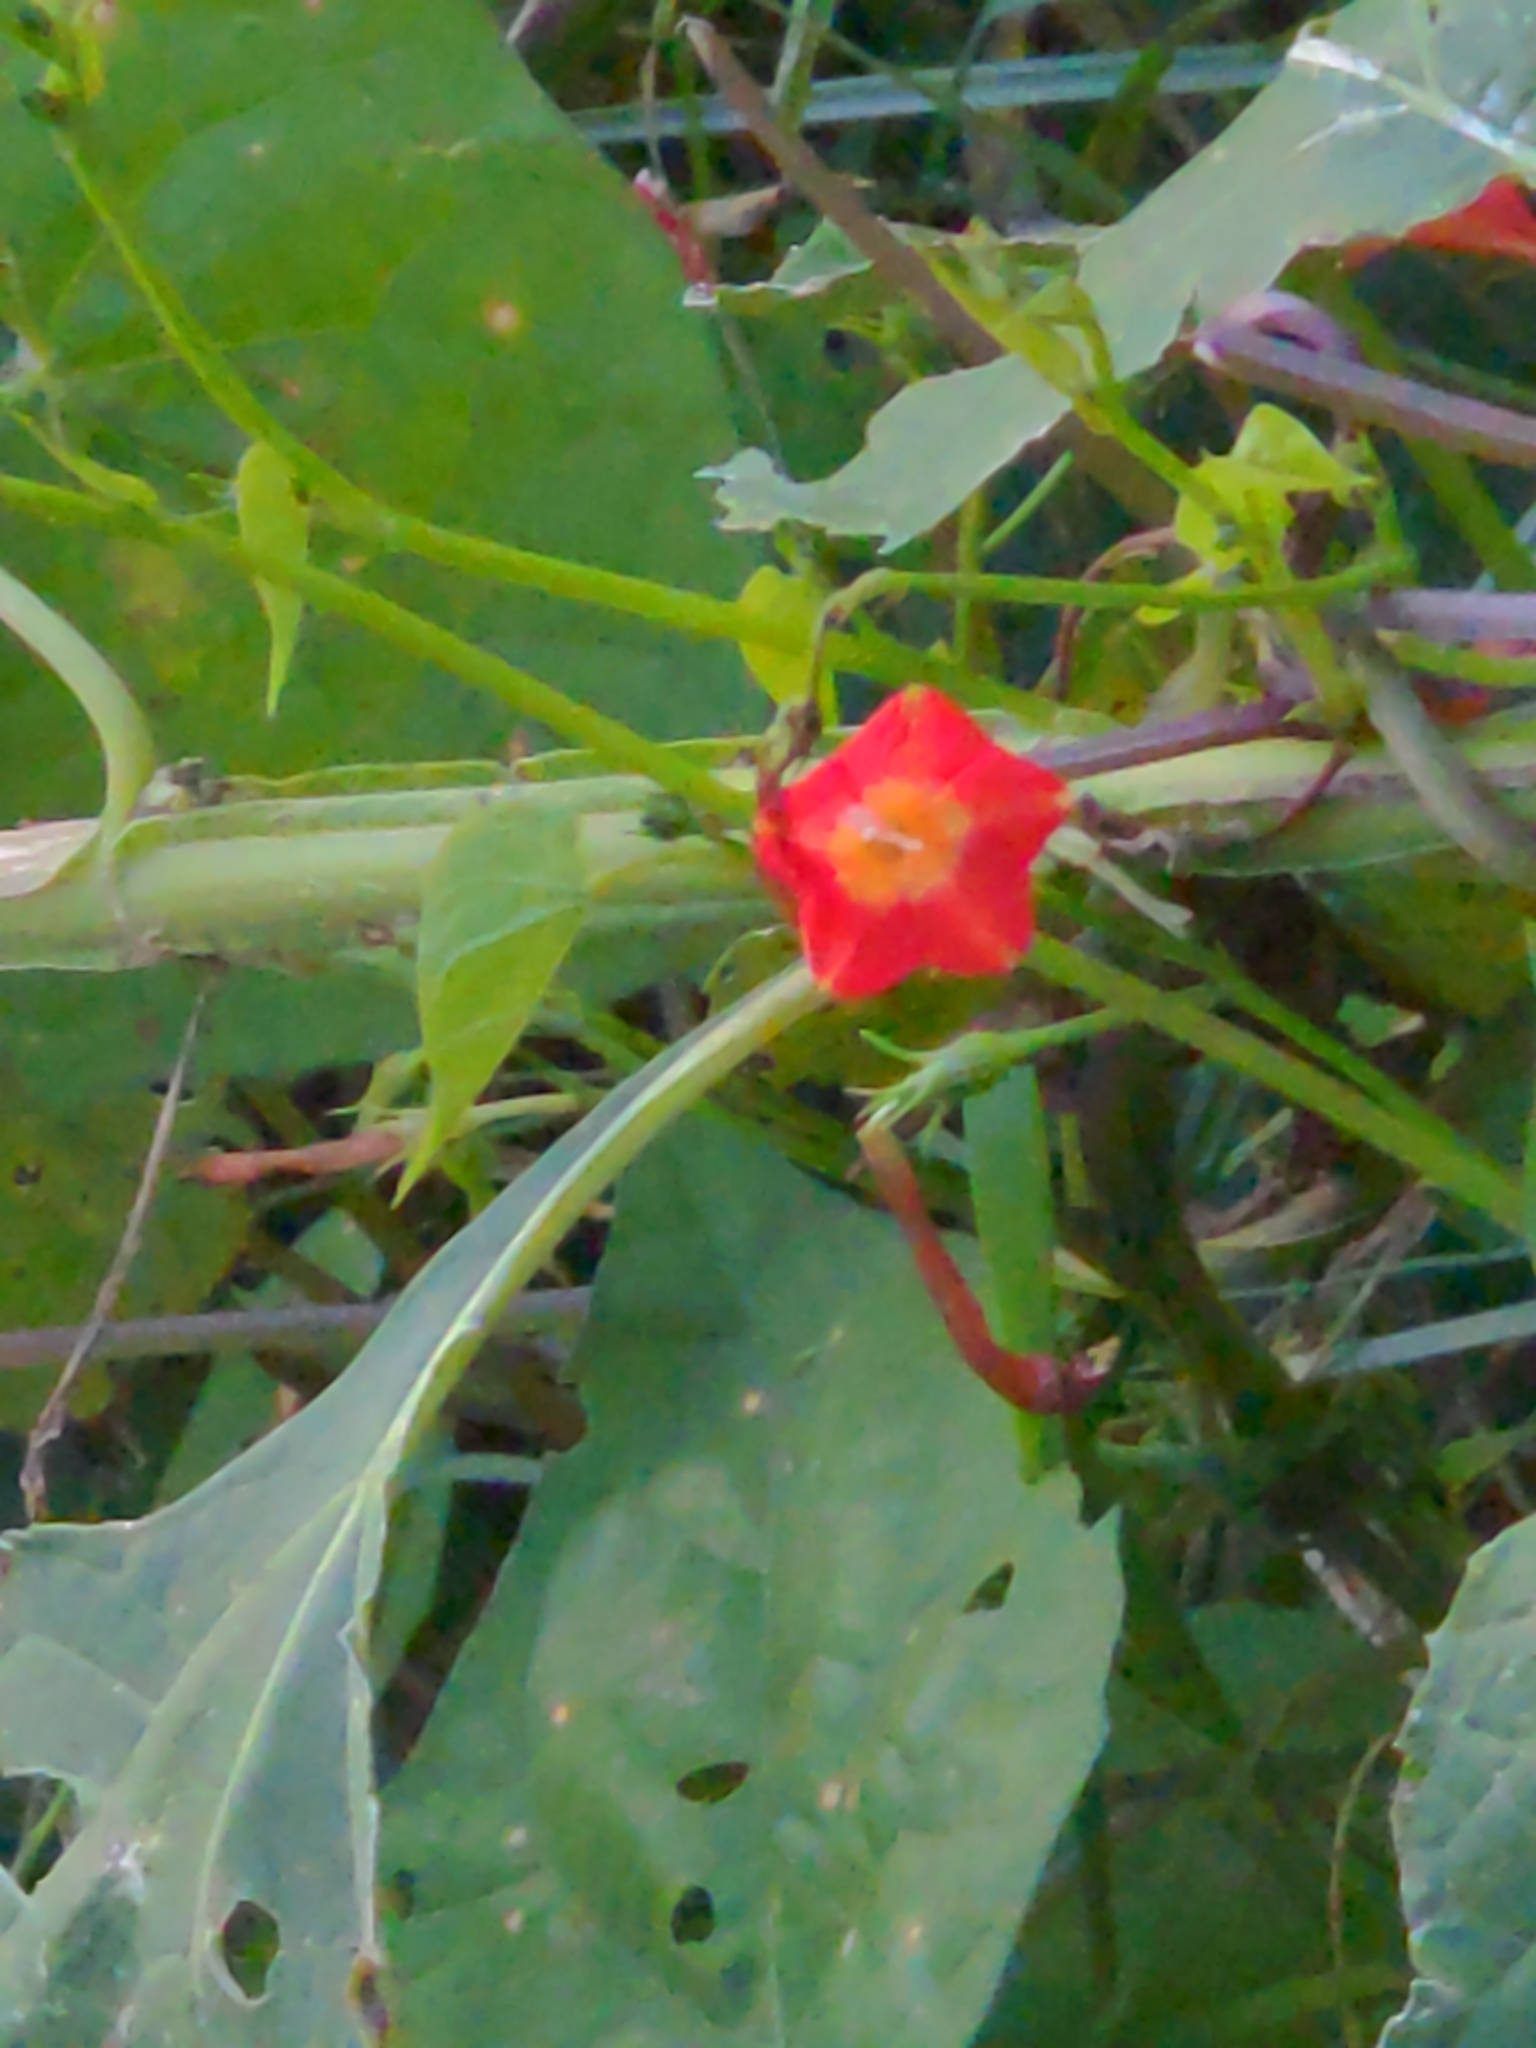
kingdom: Plantae
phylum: Tracheophyta
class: Magnoliopsida
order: Solanales
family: Convolvulaceae
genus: Ipomoea
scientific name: Ipomoea coccinea
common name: Red morning-glory
